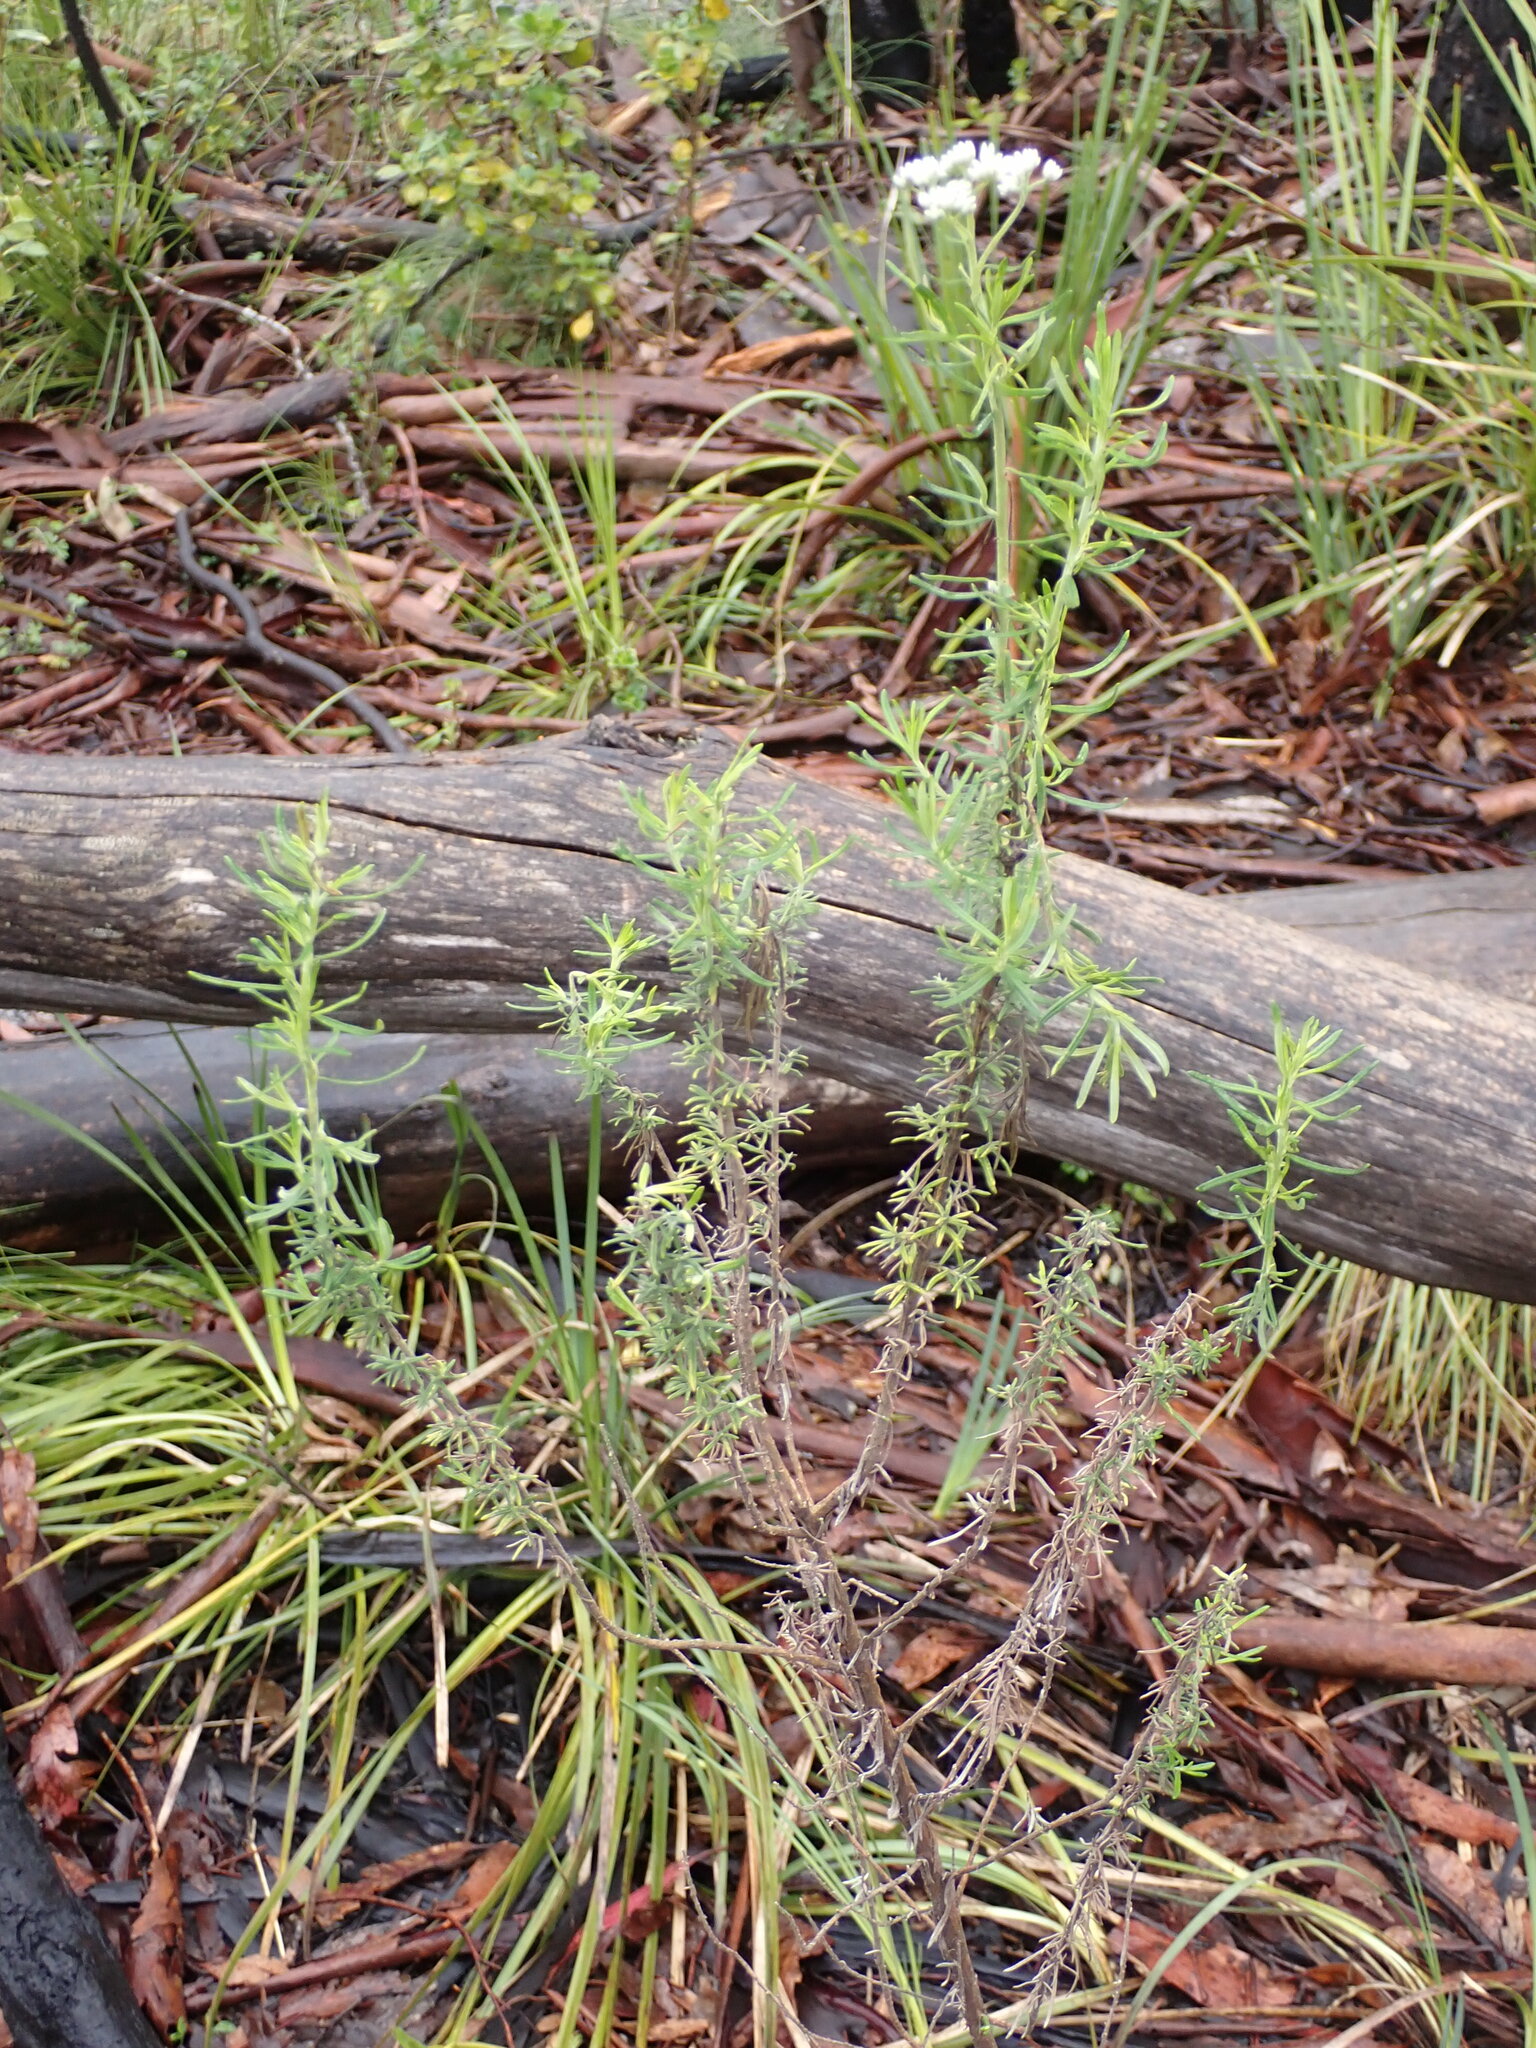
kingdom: Plantae
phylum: Tracheophyta
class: Magnoliopsida
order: Asterales
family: Asteraceae
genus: Cassinia
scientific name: Cassinia aculeata
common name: Australian tauhinu
